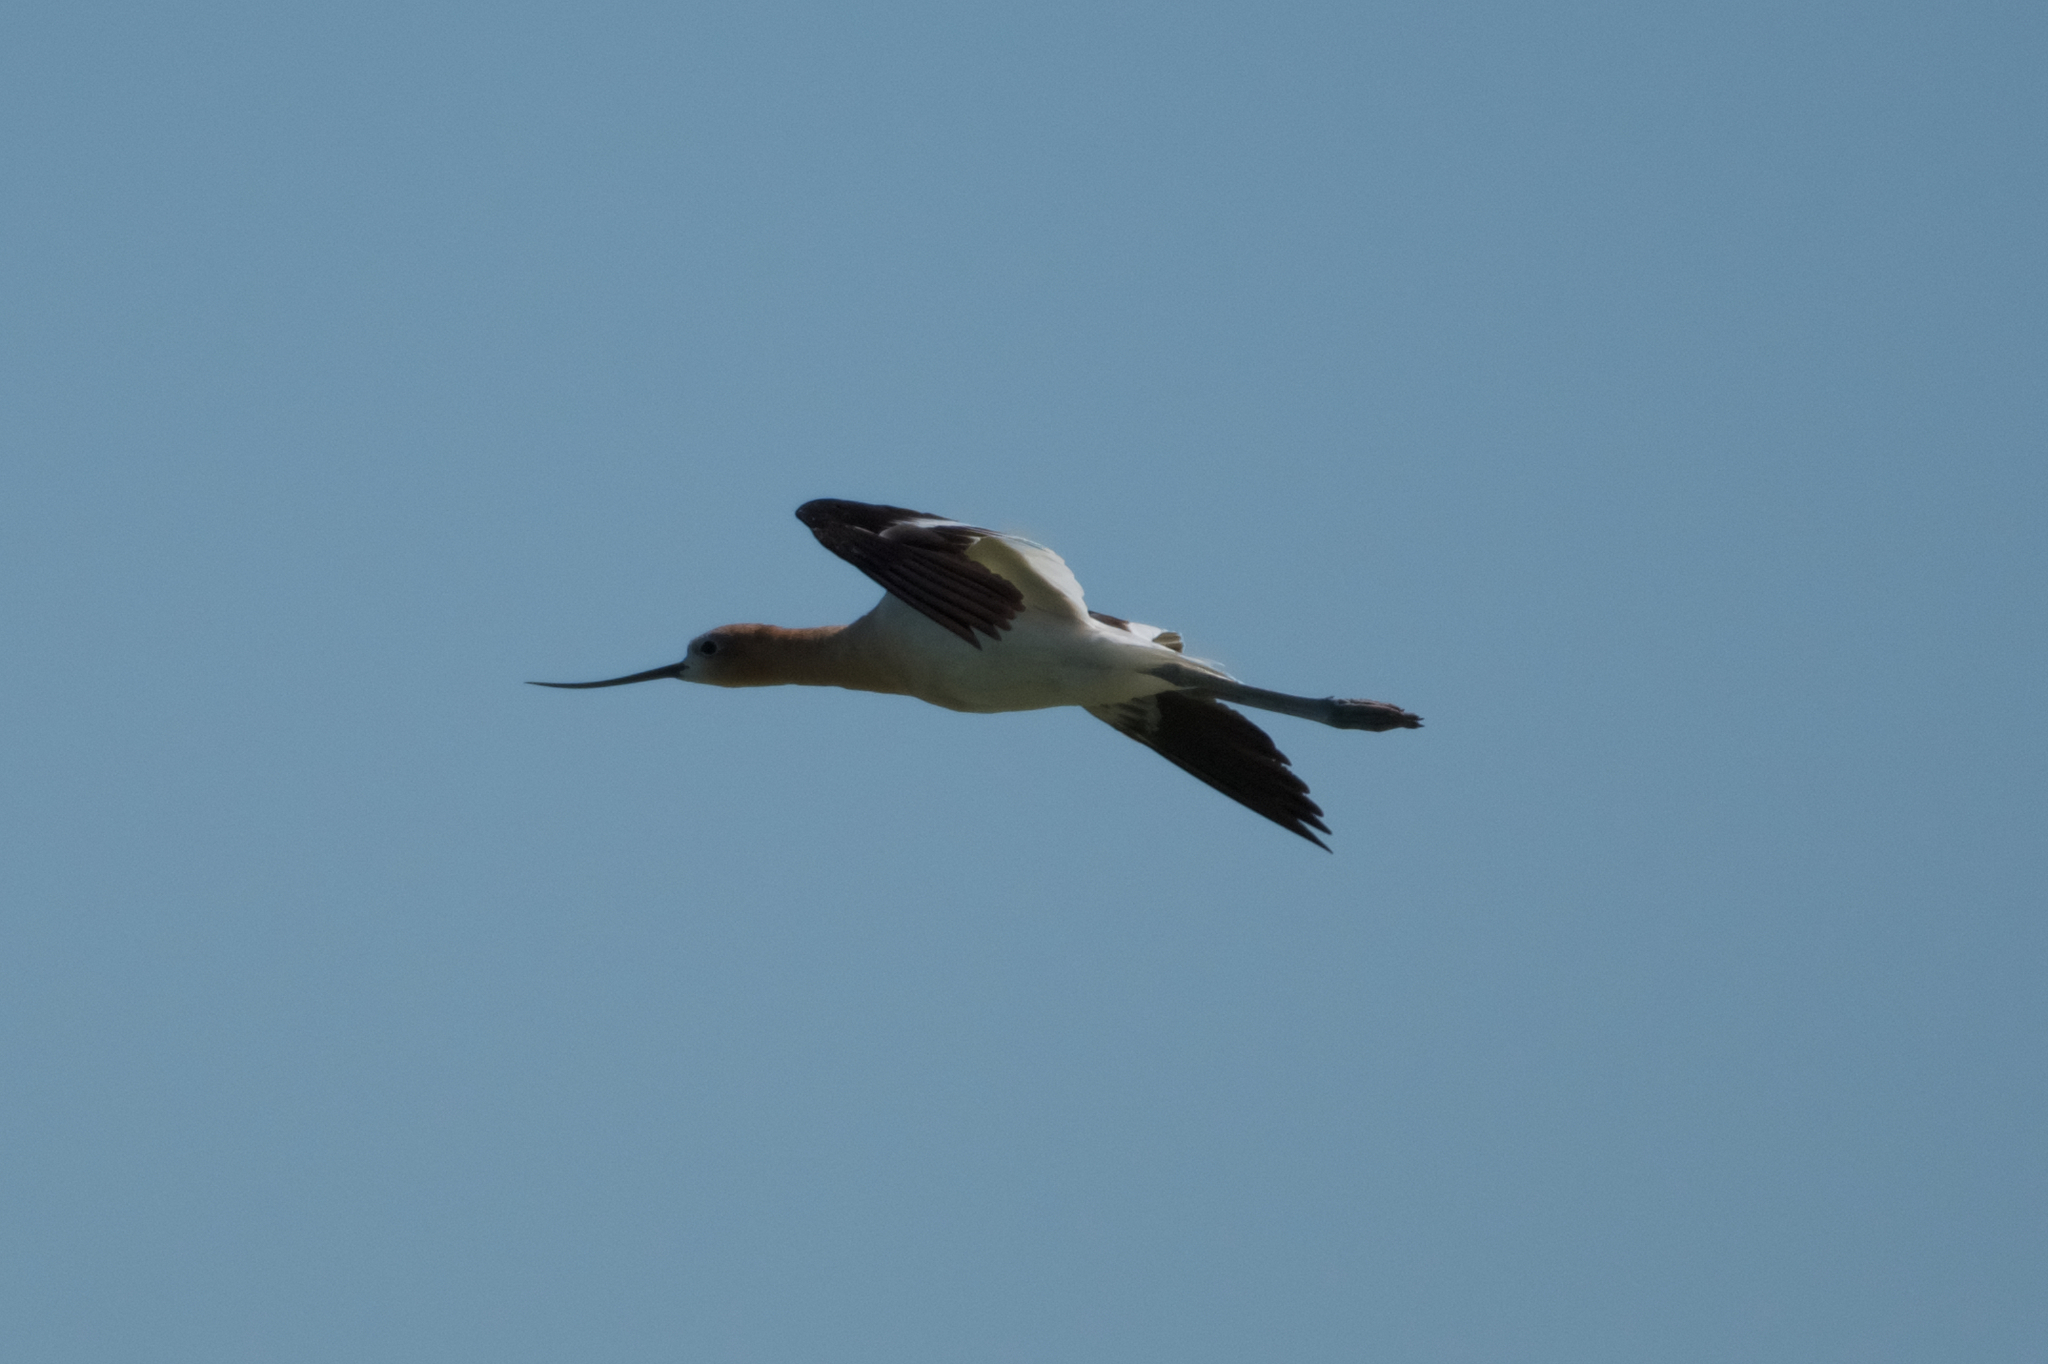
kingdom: Animalia
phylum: Chordata
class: Aves
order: Charadriiformes
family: Recurvirostridae
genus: Recurvirostra
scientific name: Recurvirostra americana
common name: American avocet
